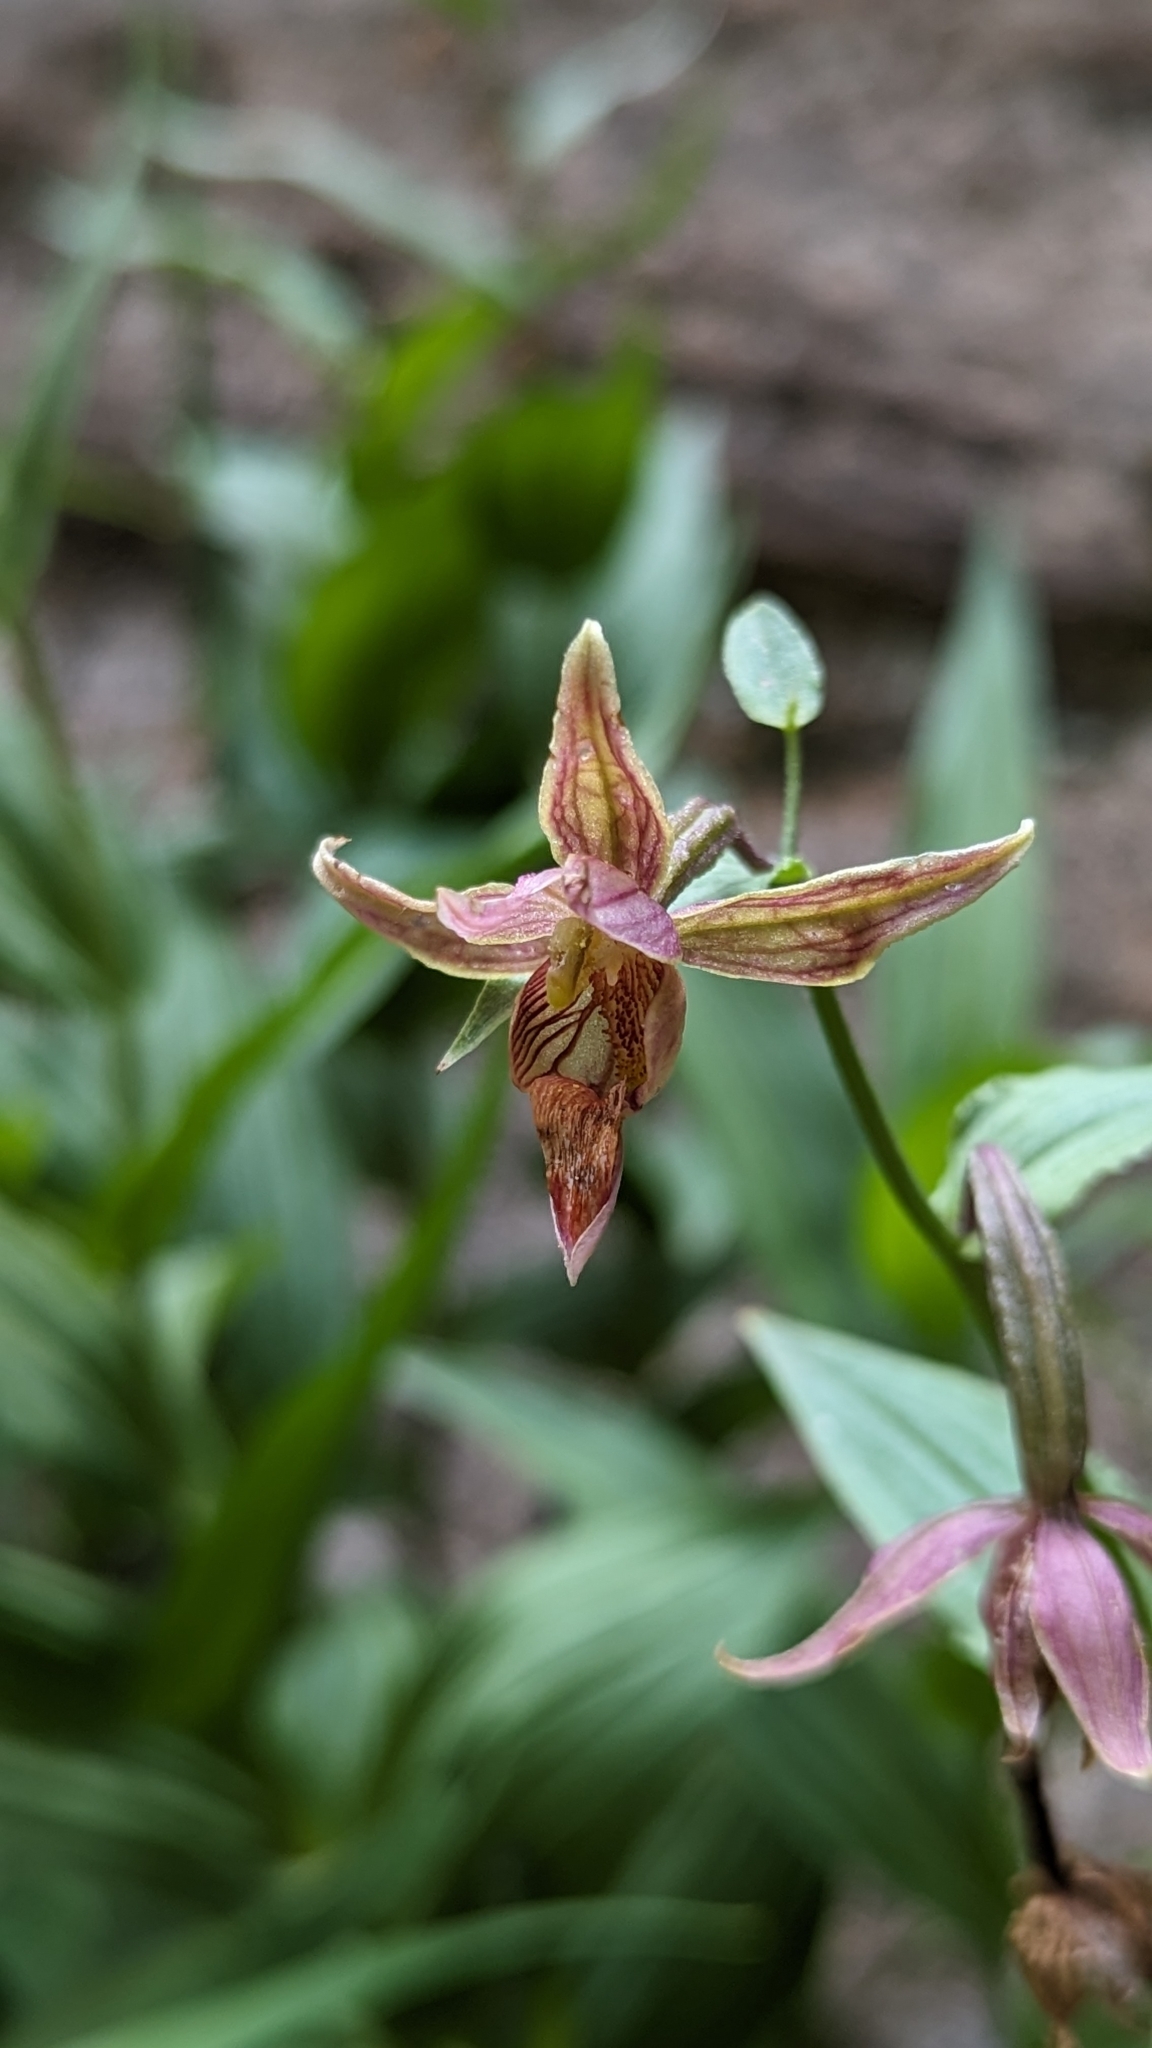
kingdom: Plantae
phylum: Tracheophyta
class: Liliopsida
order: Asparagales
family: Orchidaceae
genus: Epipactis
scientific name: Epipactis gigantea
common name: Chatterbox
